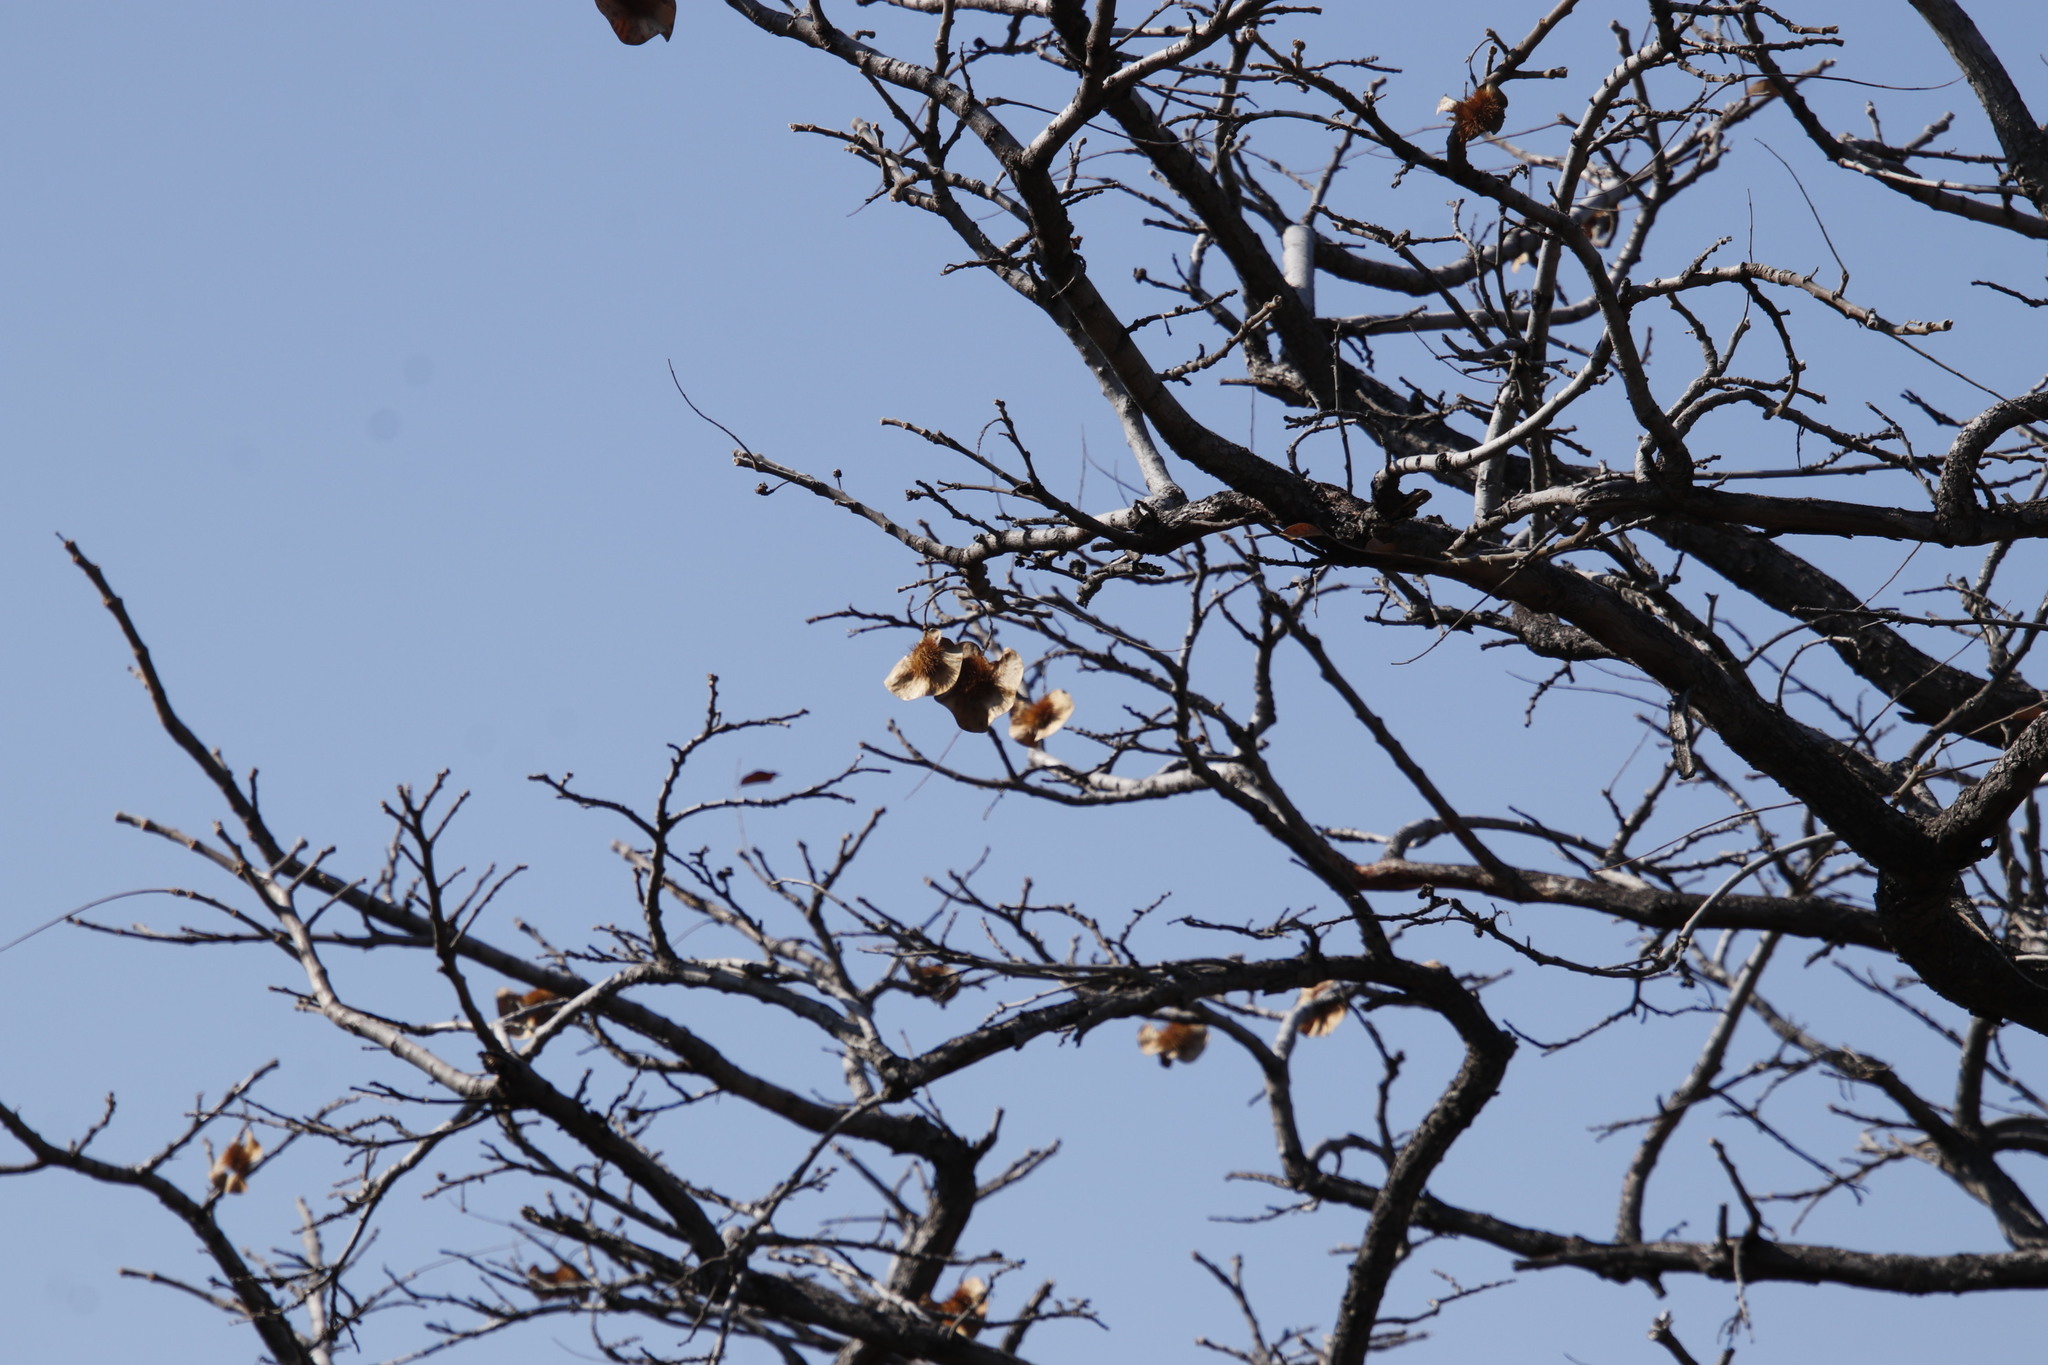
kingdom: Plantae
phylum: Tracheophyta
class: Magnoliopsida
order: Fabales
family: Fabaceae
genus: Pterocarpus
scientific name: Pterocarpus angolensis
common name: Bloodwood tree
